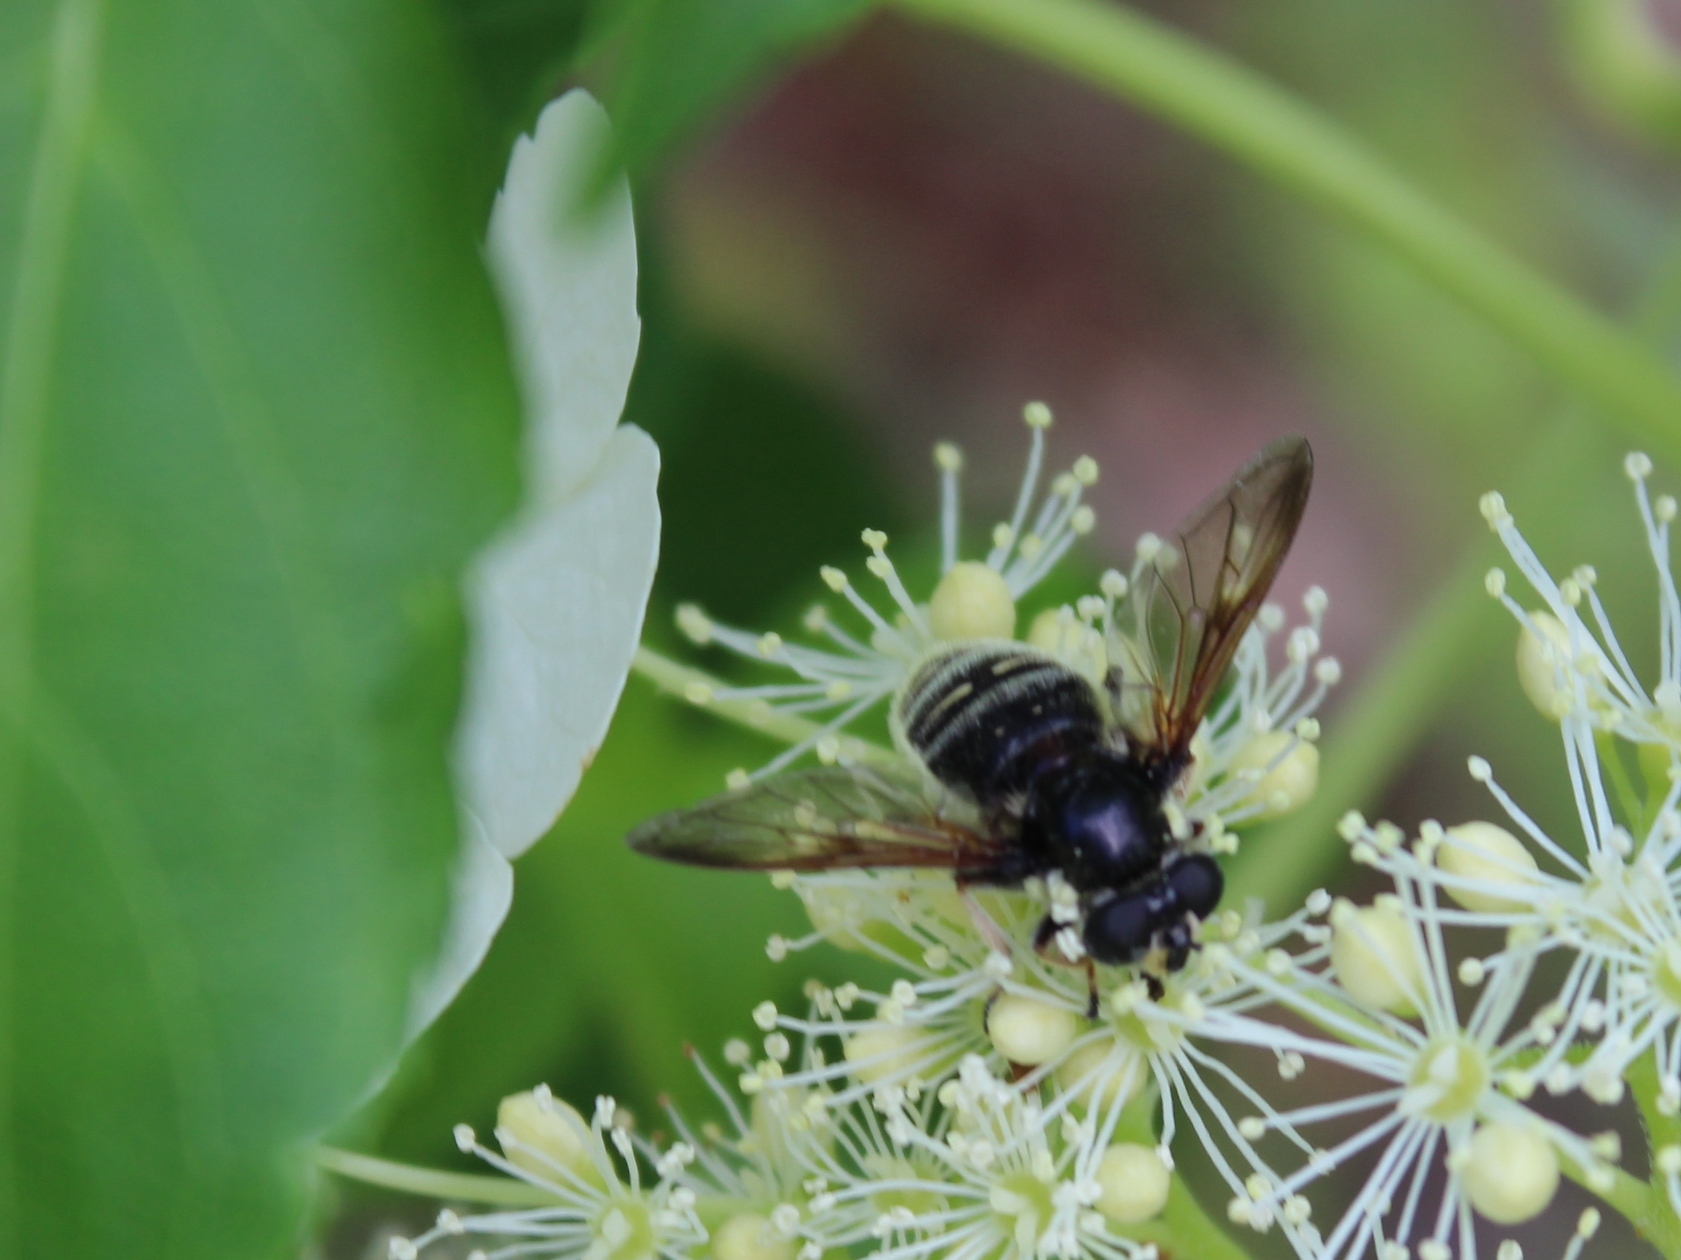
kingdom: Animalia
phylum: Arthropoda
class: Insecta
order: Diptera
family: Syrphidae
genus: Sericomyia
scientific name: Sericomyia militaris
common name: Narrow-banded pond fly
